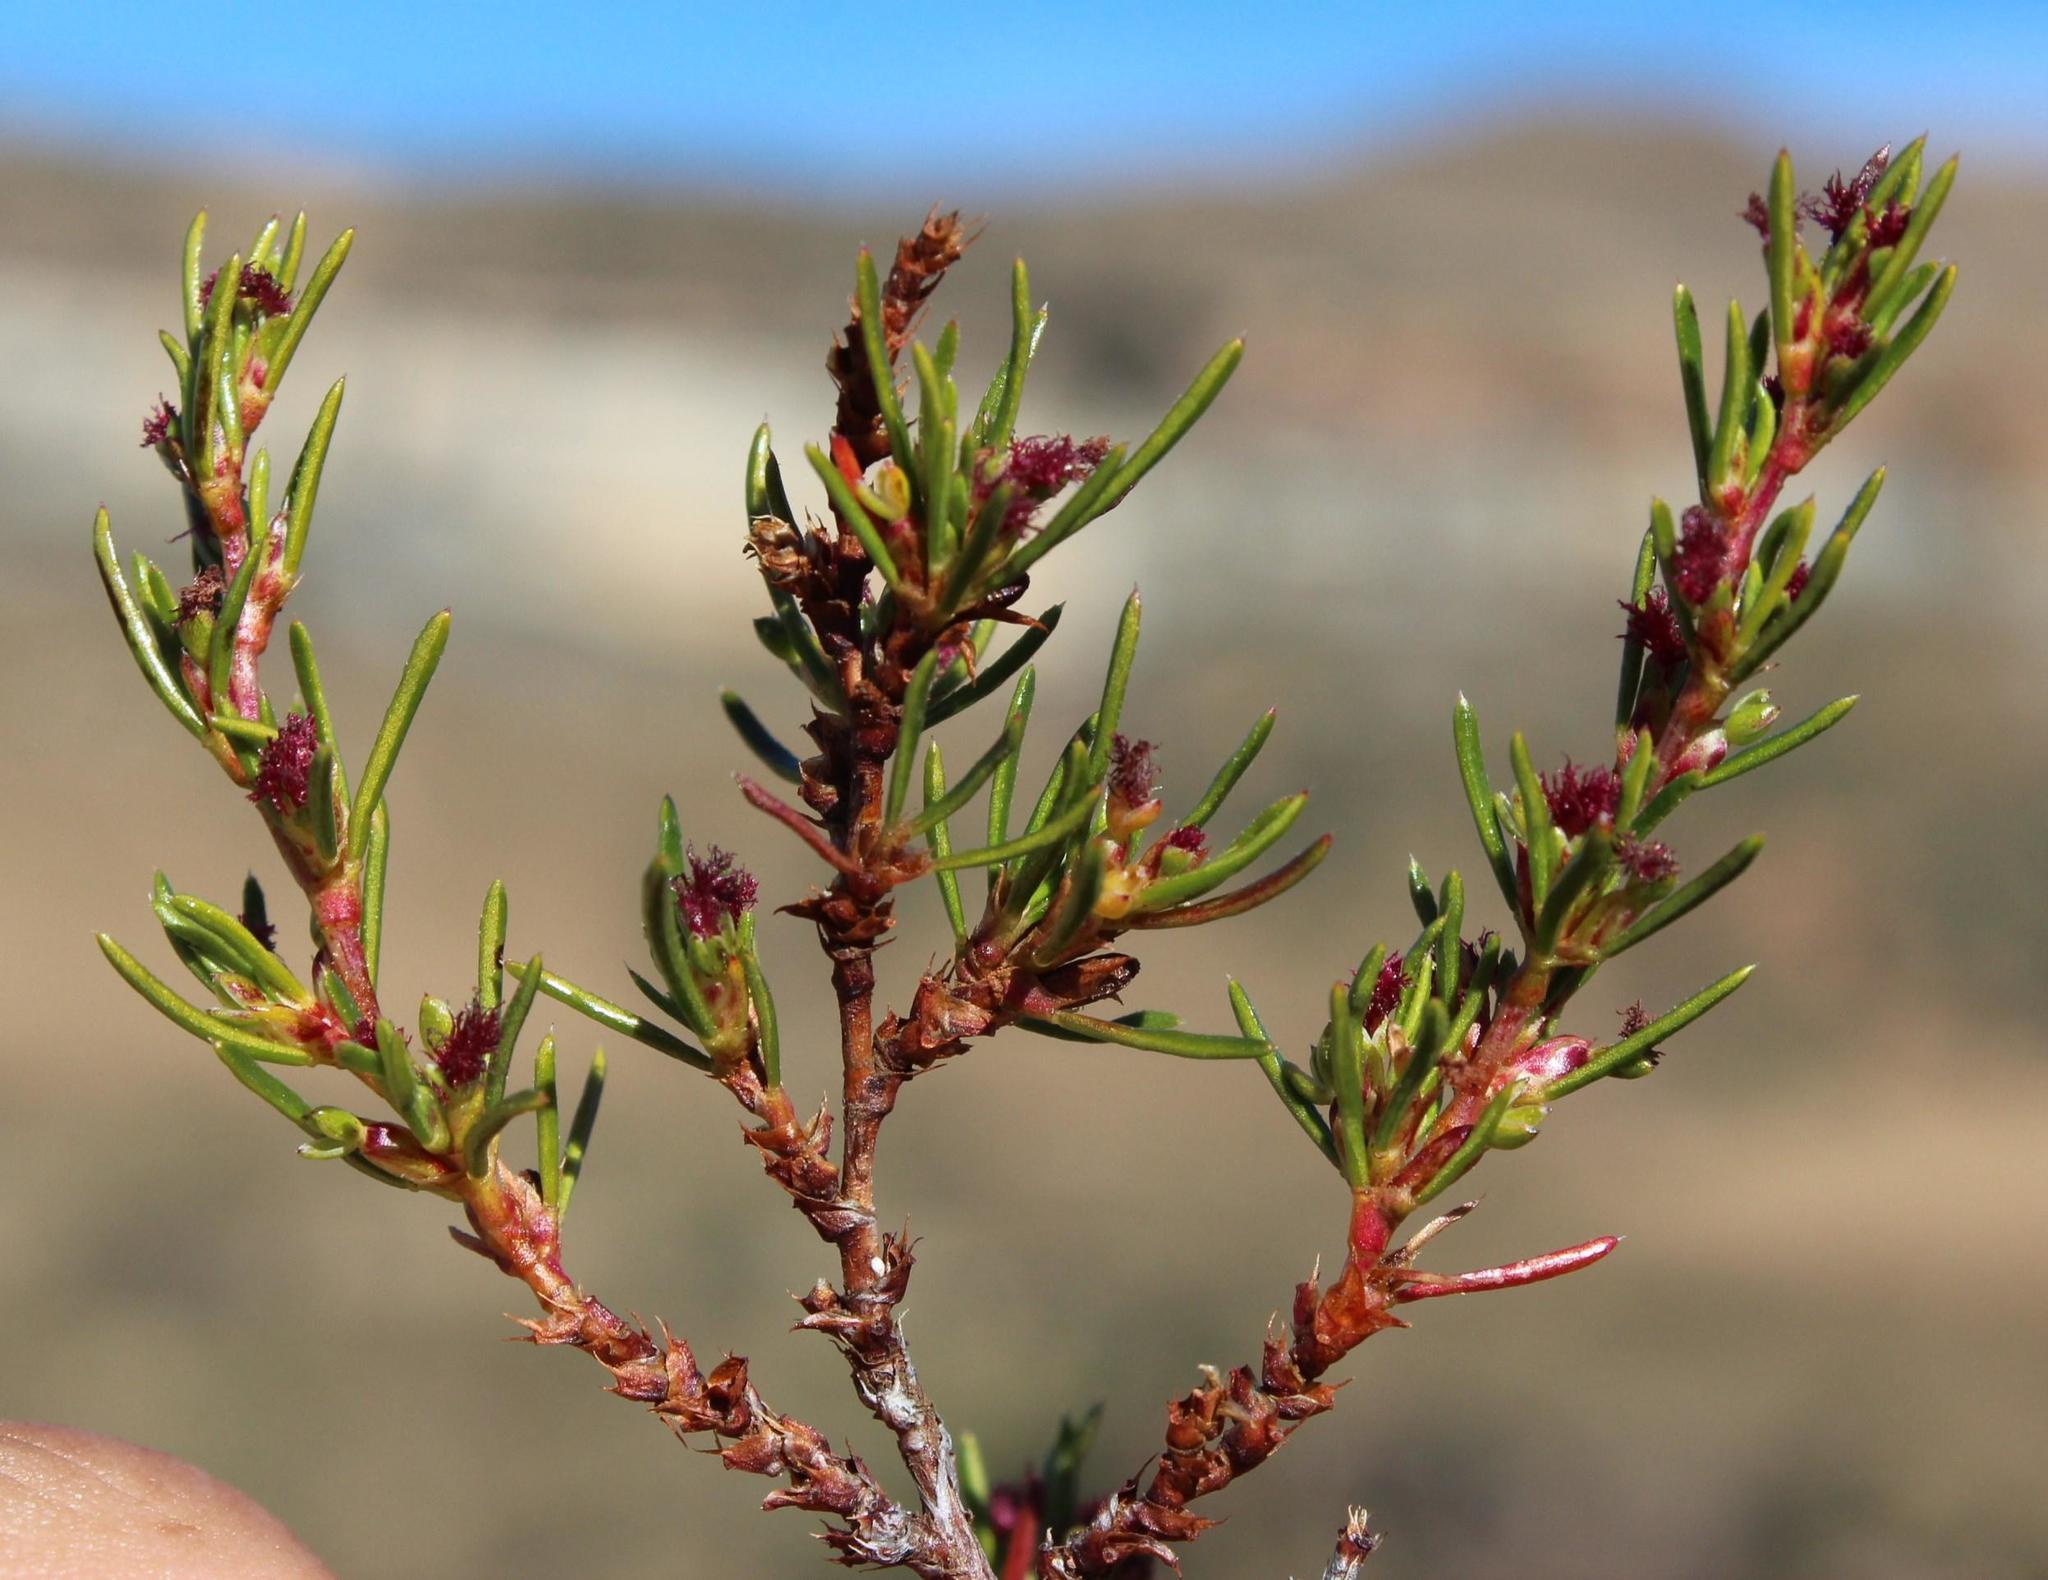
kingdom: Plantae
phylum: Tracheophyta
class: Magnoliopsida
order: Rosales
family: Rosaceae
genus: Cliffortia
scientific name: Cliffortia repens
